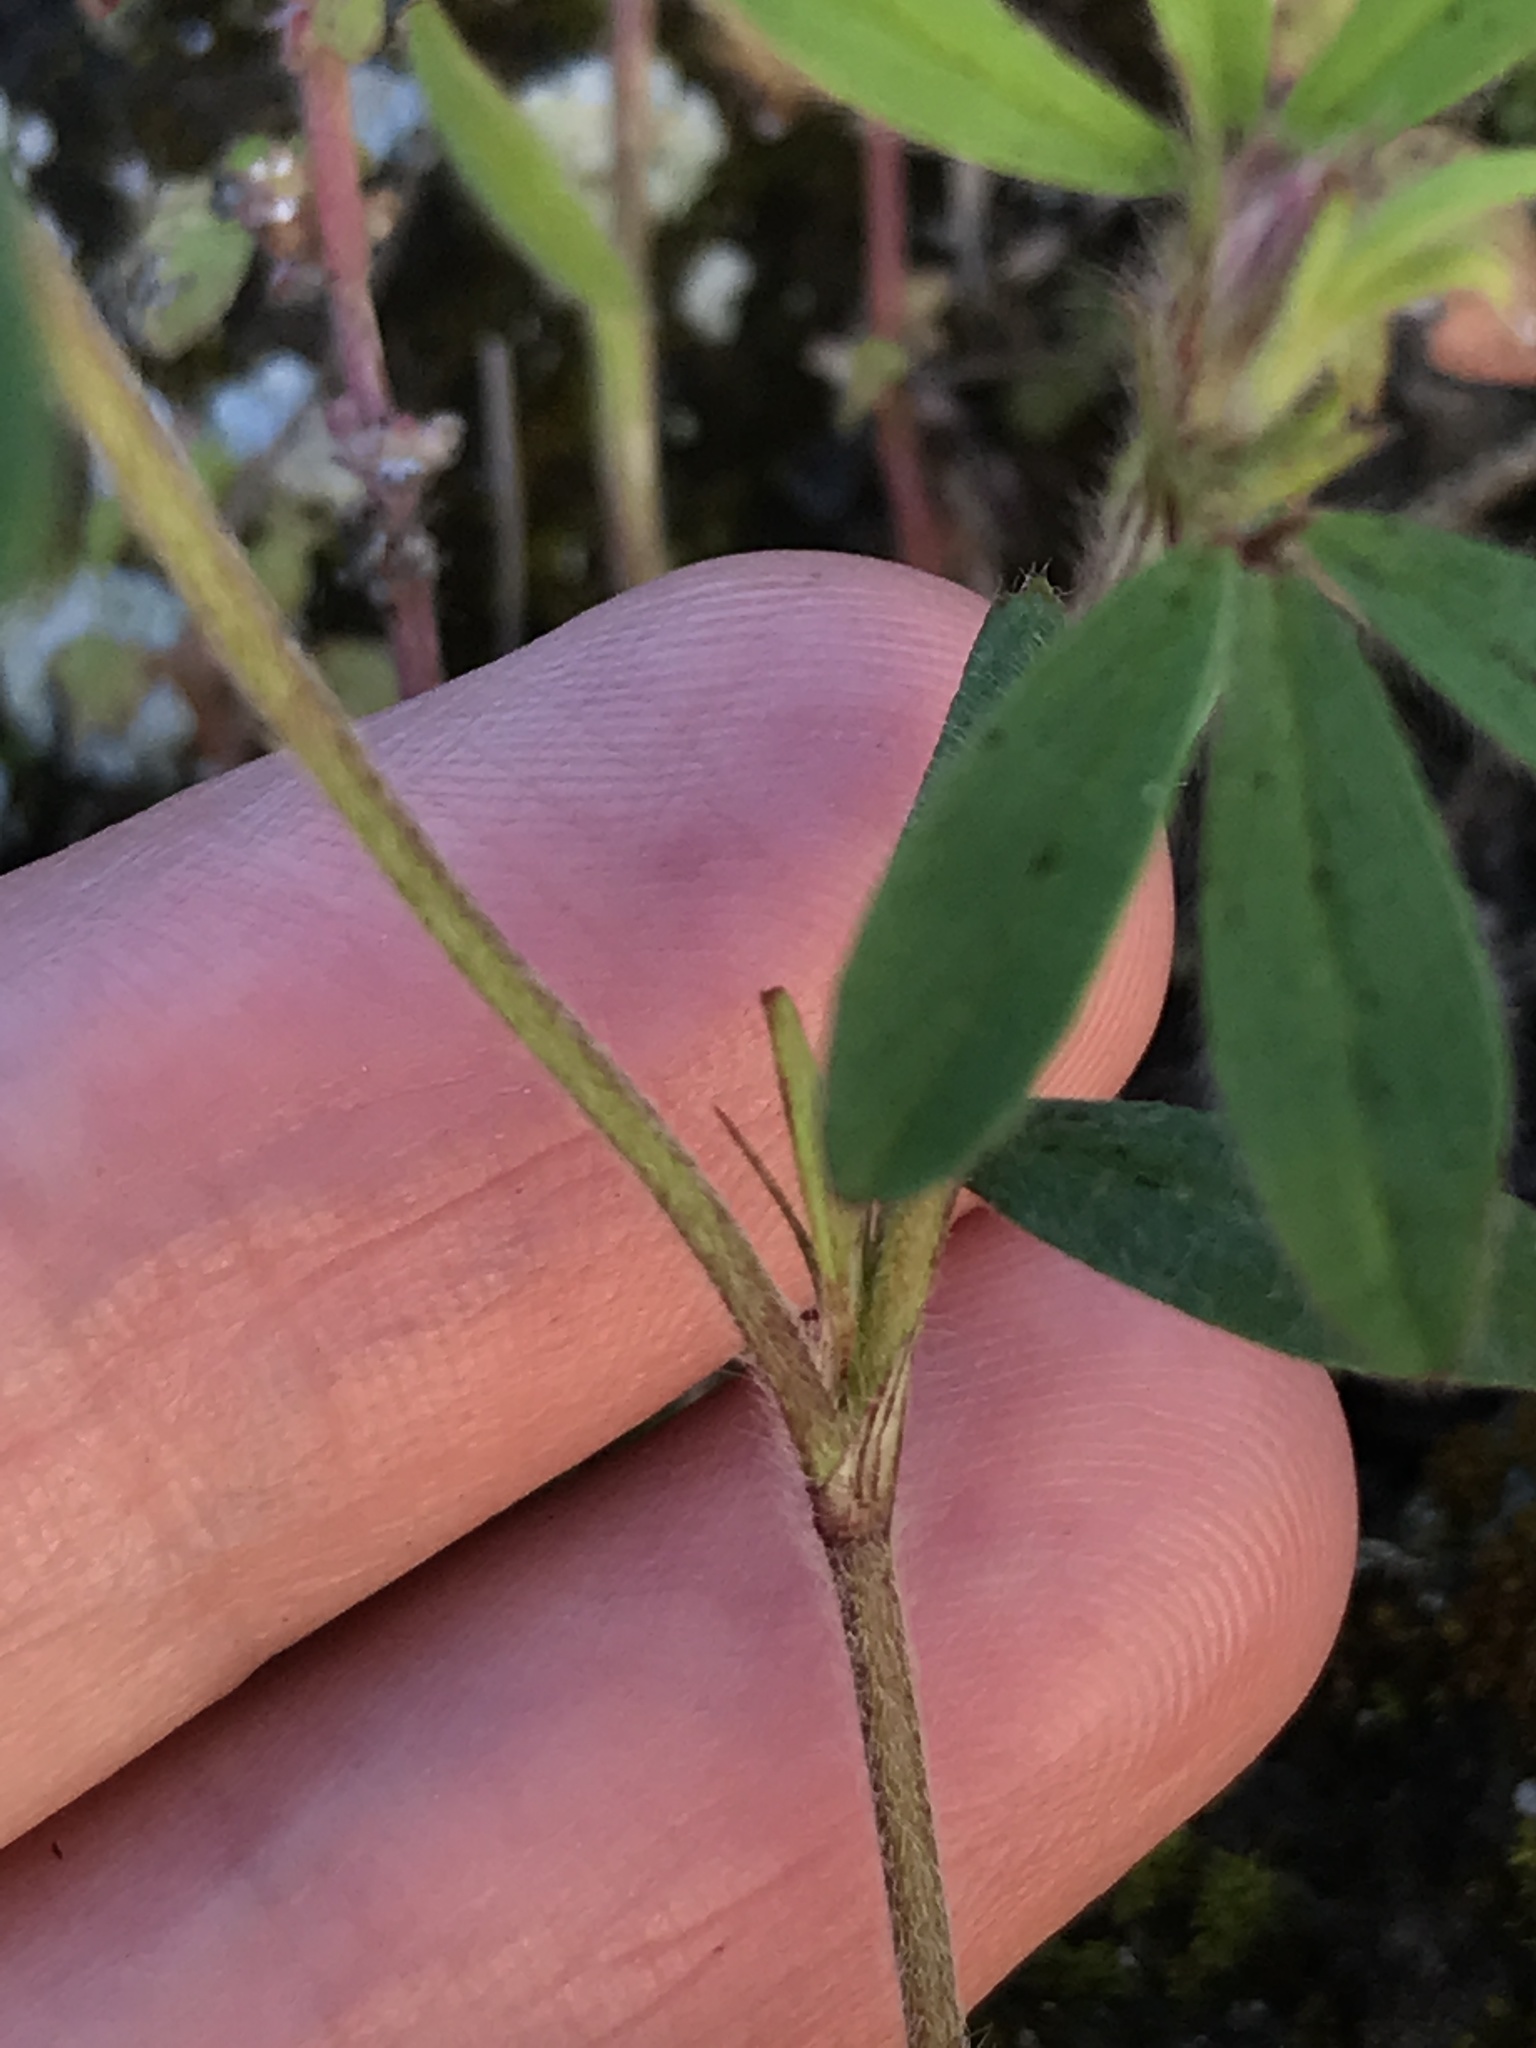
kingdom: Plantae
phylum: Tracheophyta
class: Magnoliopsida
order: Fabales
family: Fabaceae
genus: Trifolium
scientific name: Trifolium arvense
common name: Hare's-foot clover
